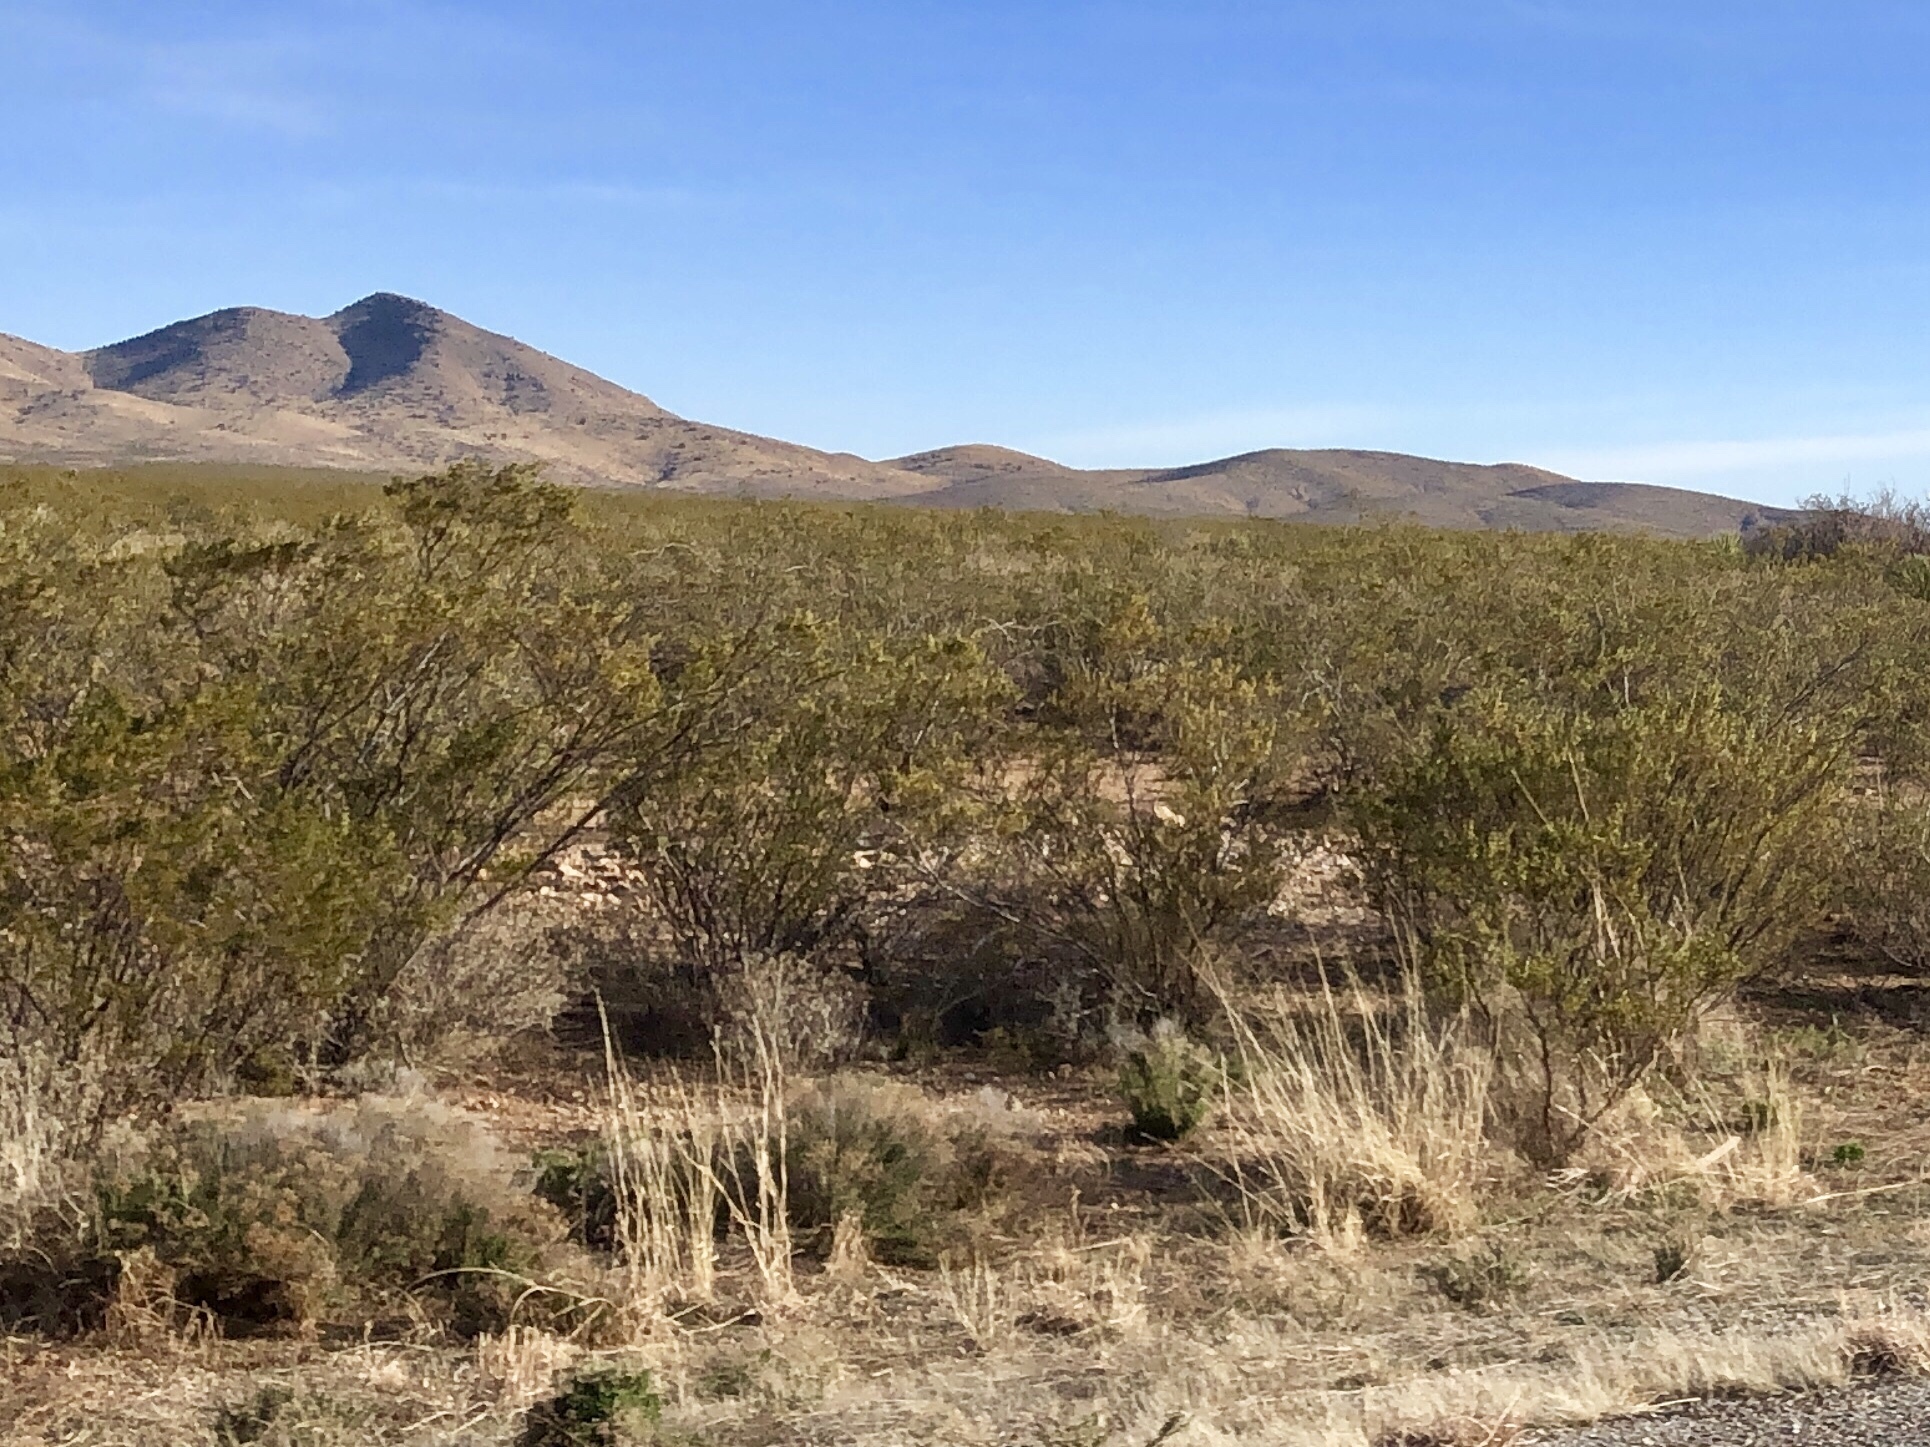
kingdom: Plantae
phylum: Tracheophyta
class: Magnoliopsida
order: Zygophyllales
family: Zygophyllaceae
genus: Larrea
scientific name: Larrea tridentata
